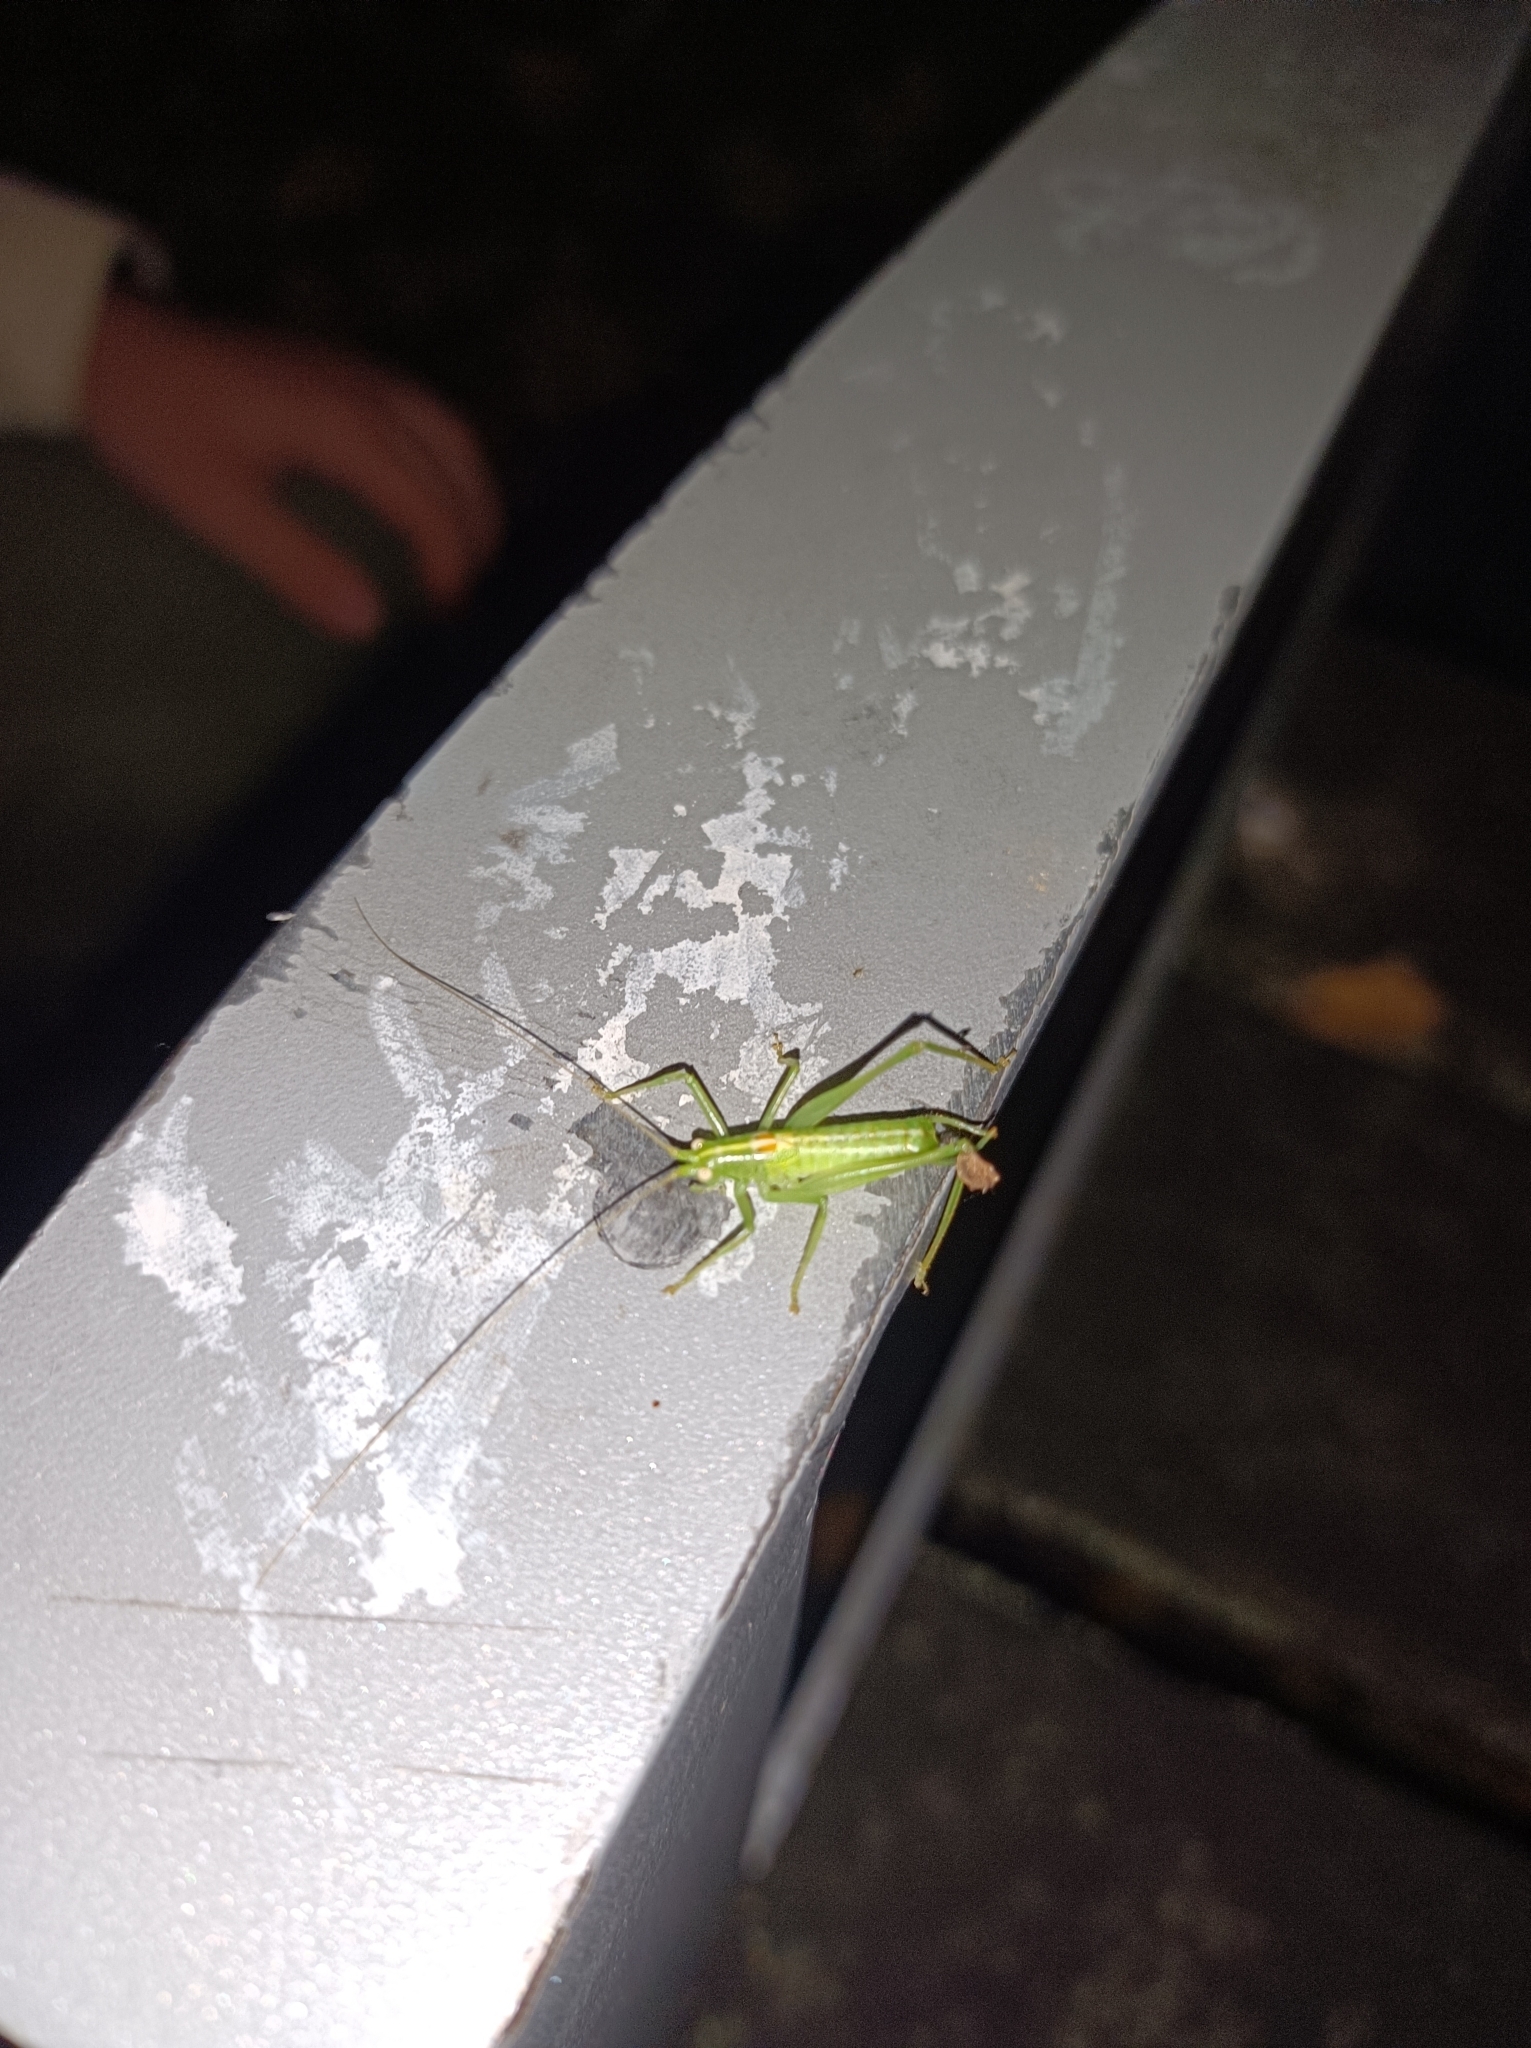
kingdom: Animalia
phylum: Arthropoda
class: Insecta
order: Orthoptera
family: Tettigoniidae
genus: Meconema
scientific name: Meconema meridionale
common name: Southern oak bush-cricket
